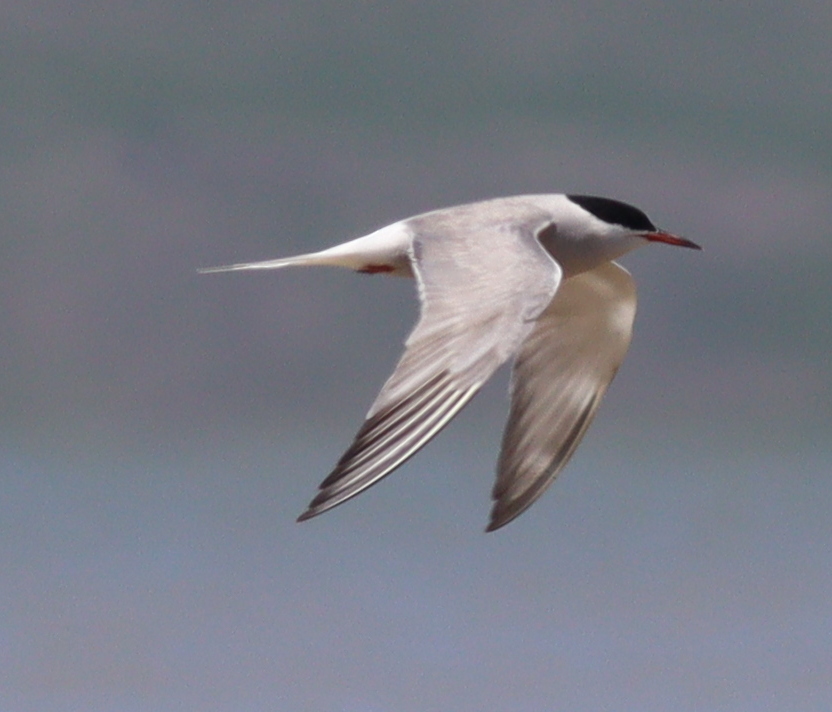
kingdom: Animalia
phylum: Chordata
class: Aves
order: Charadriiformes
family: Laridae
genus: Sterna
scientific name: Sterna hirundo
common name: Common tern
